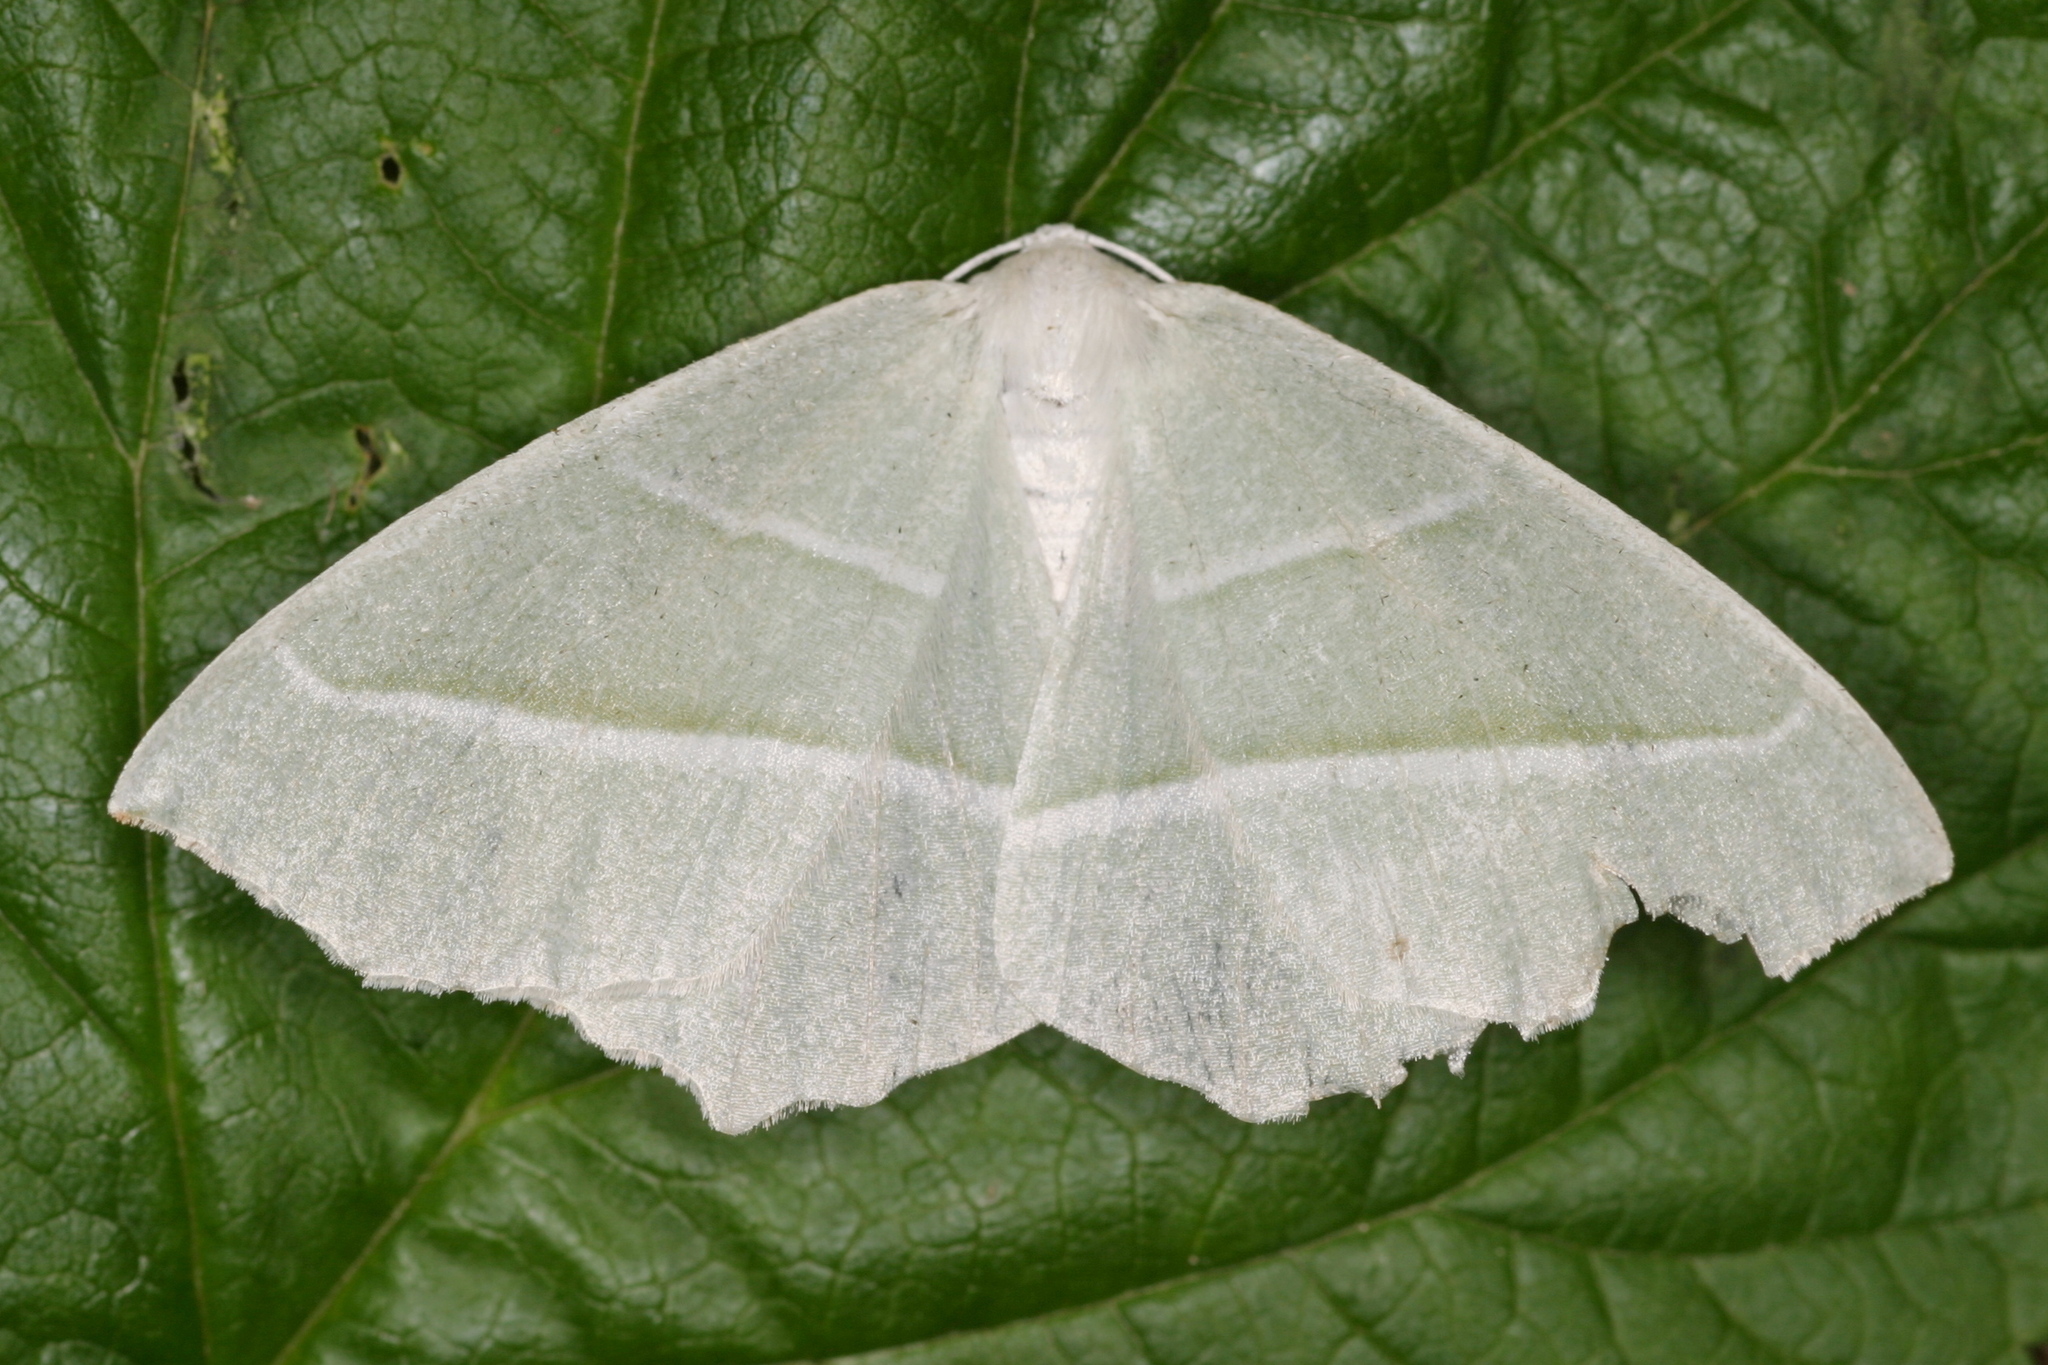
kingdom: Animalia
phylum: Arthropoda
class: Insecta
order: Lepidoptera
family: Geometridae
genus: Campaea
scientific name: Campaea margaritaria
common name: Light emerald
